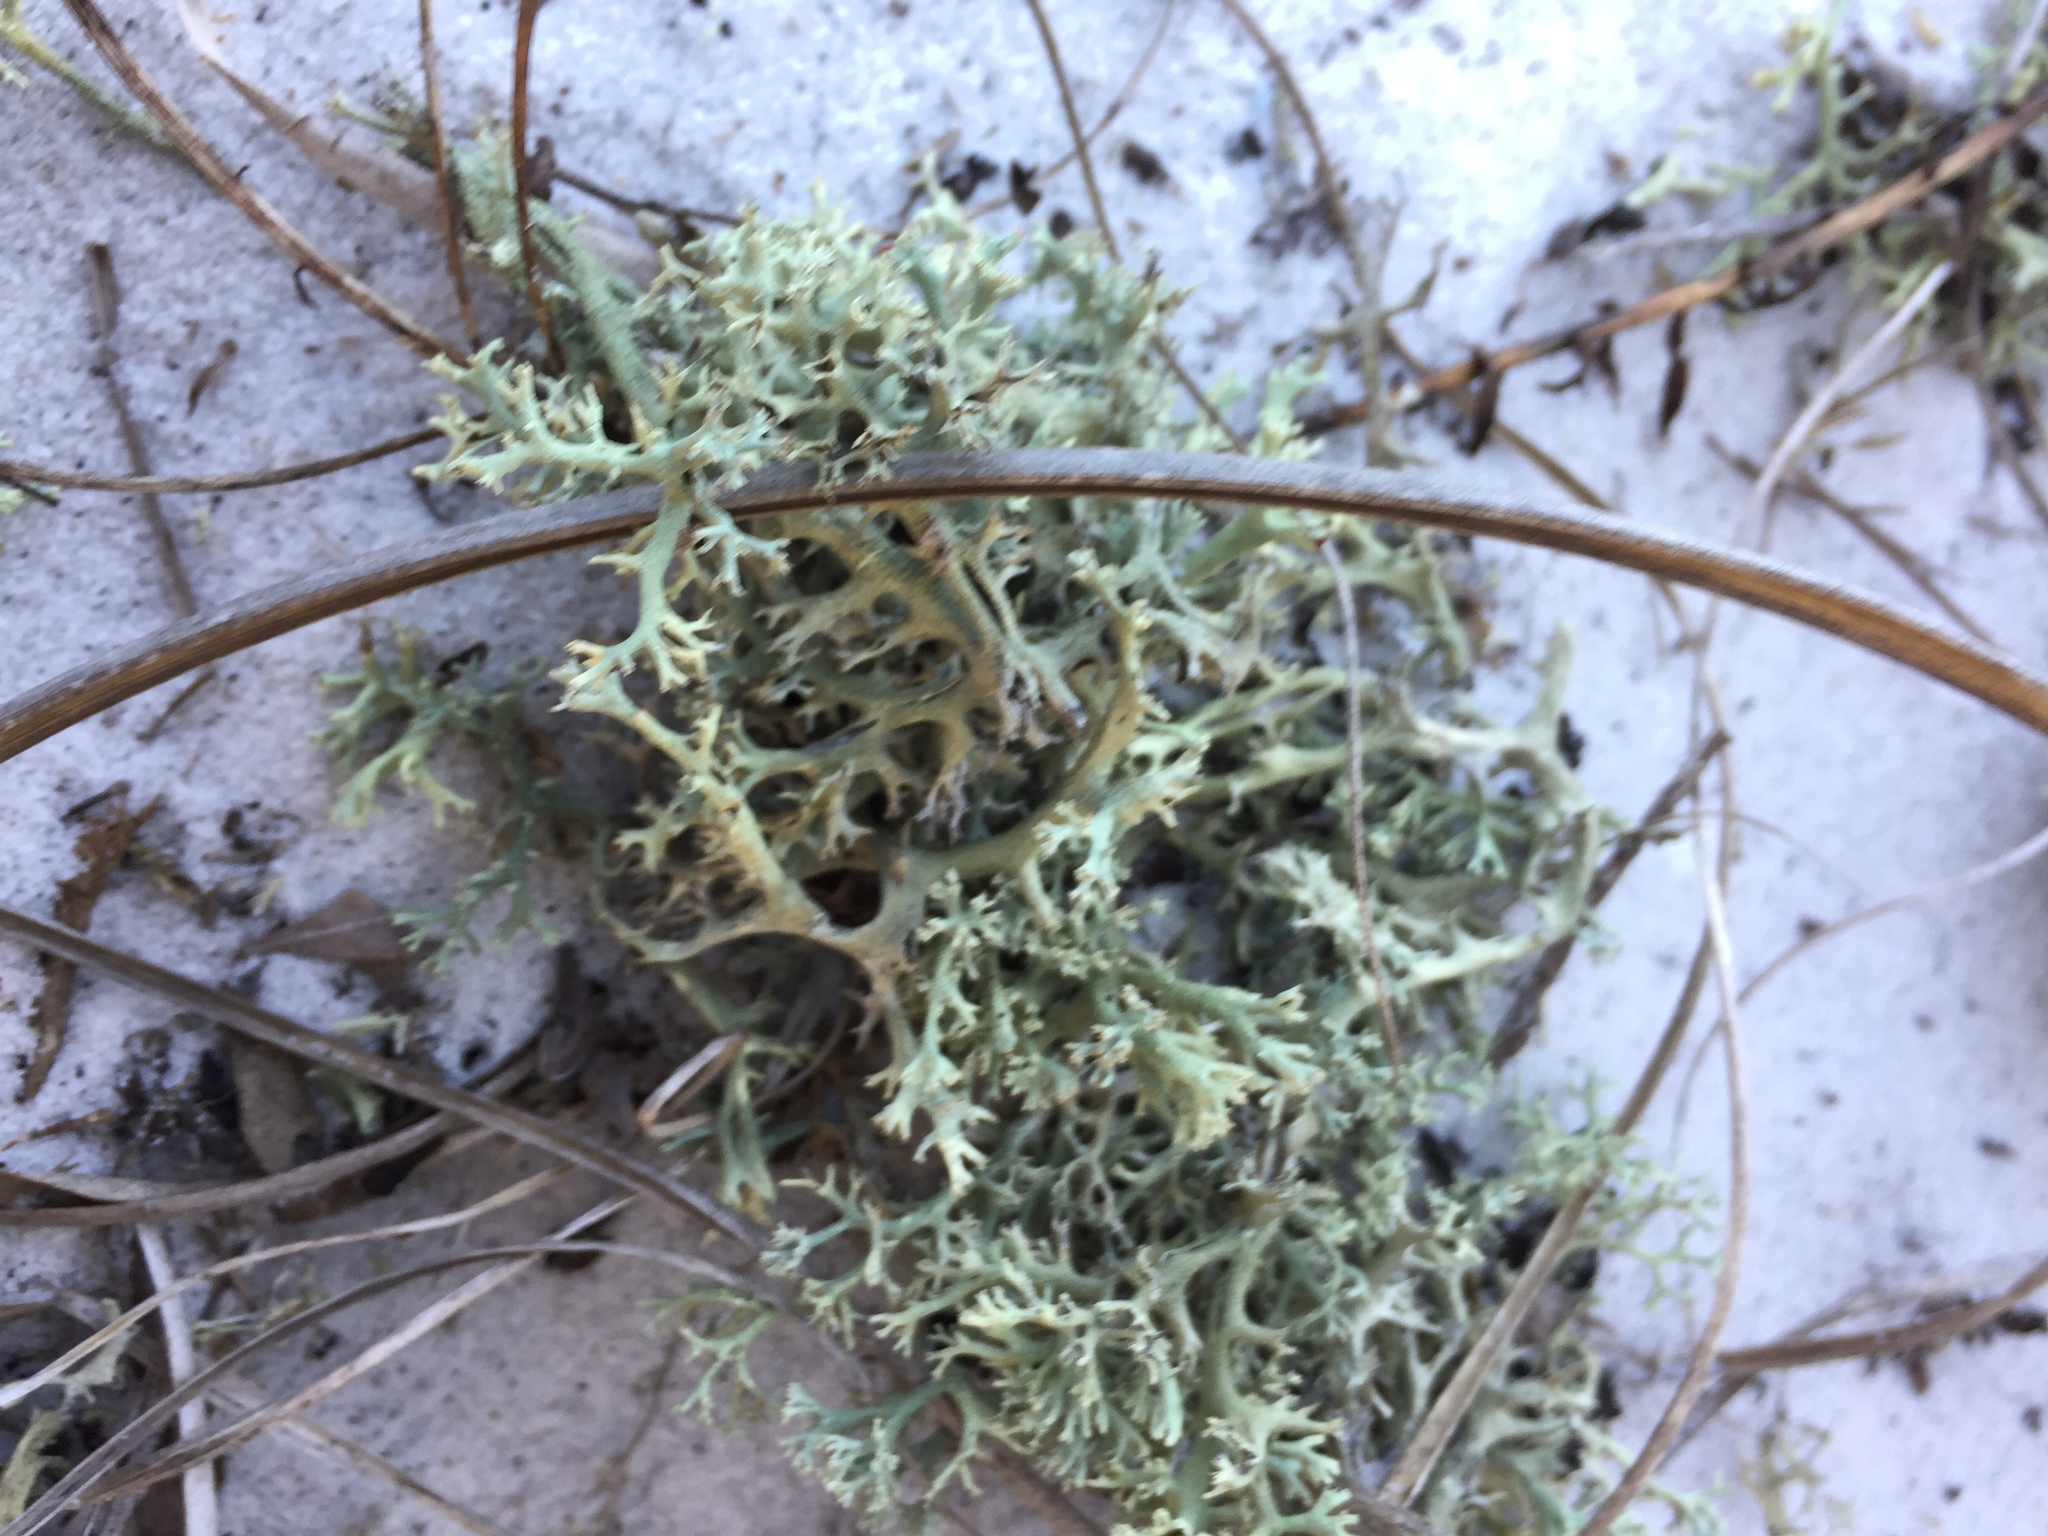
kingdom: Fungi
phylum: Ascomycota
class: Lecanoromycetes
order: Lecanorales
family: Cladoniaceae
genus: Cladonia
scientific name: Cladonia leporina
